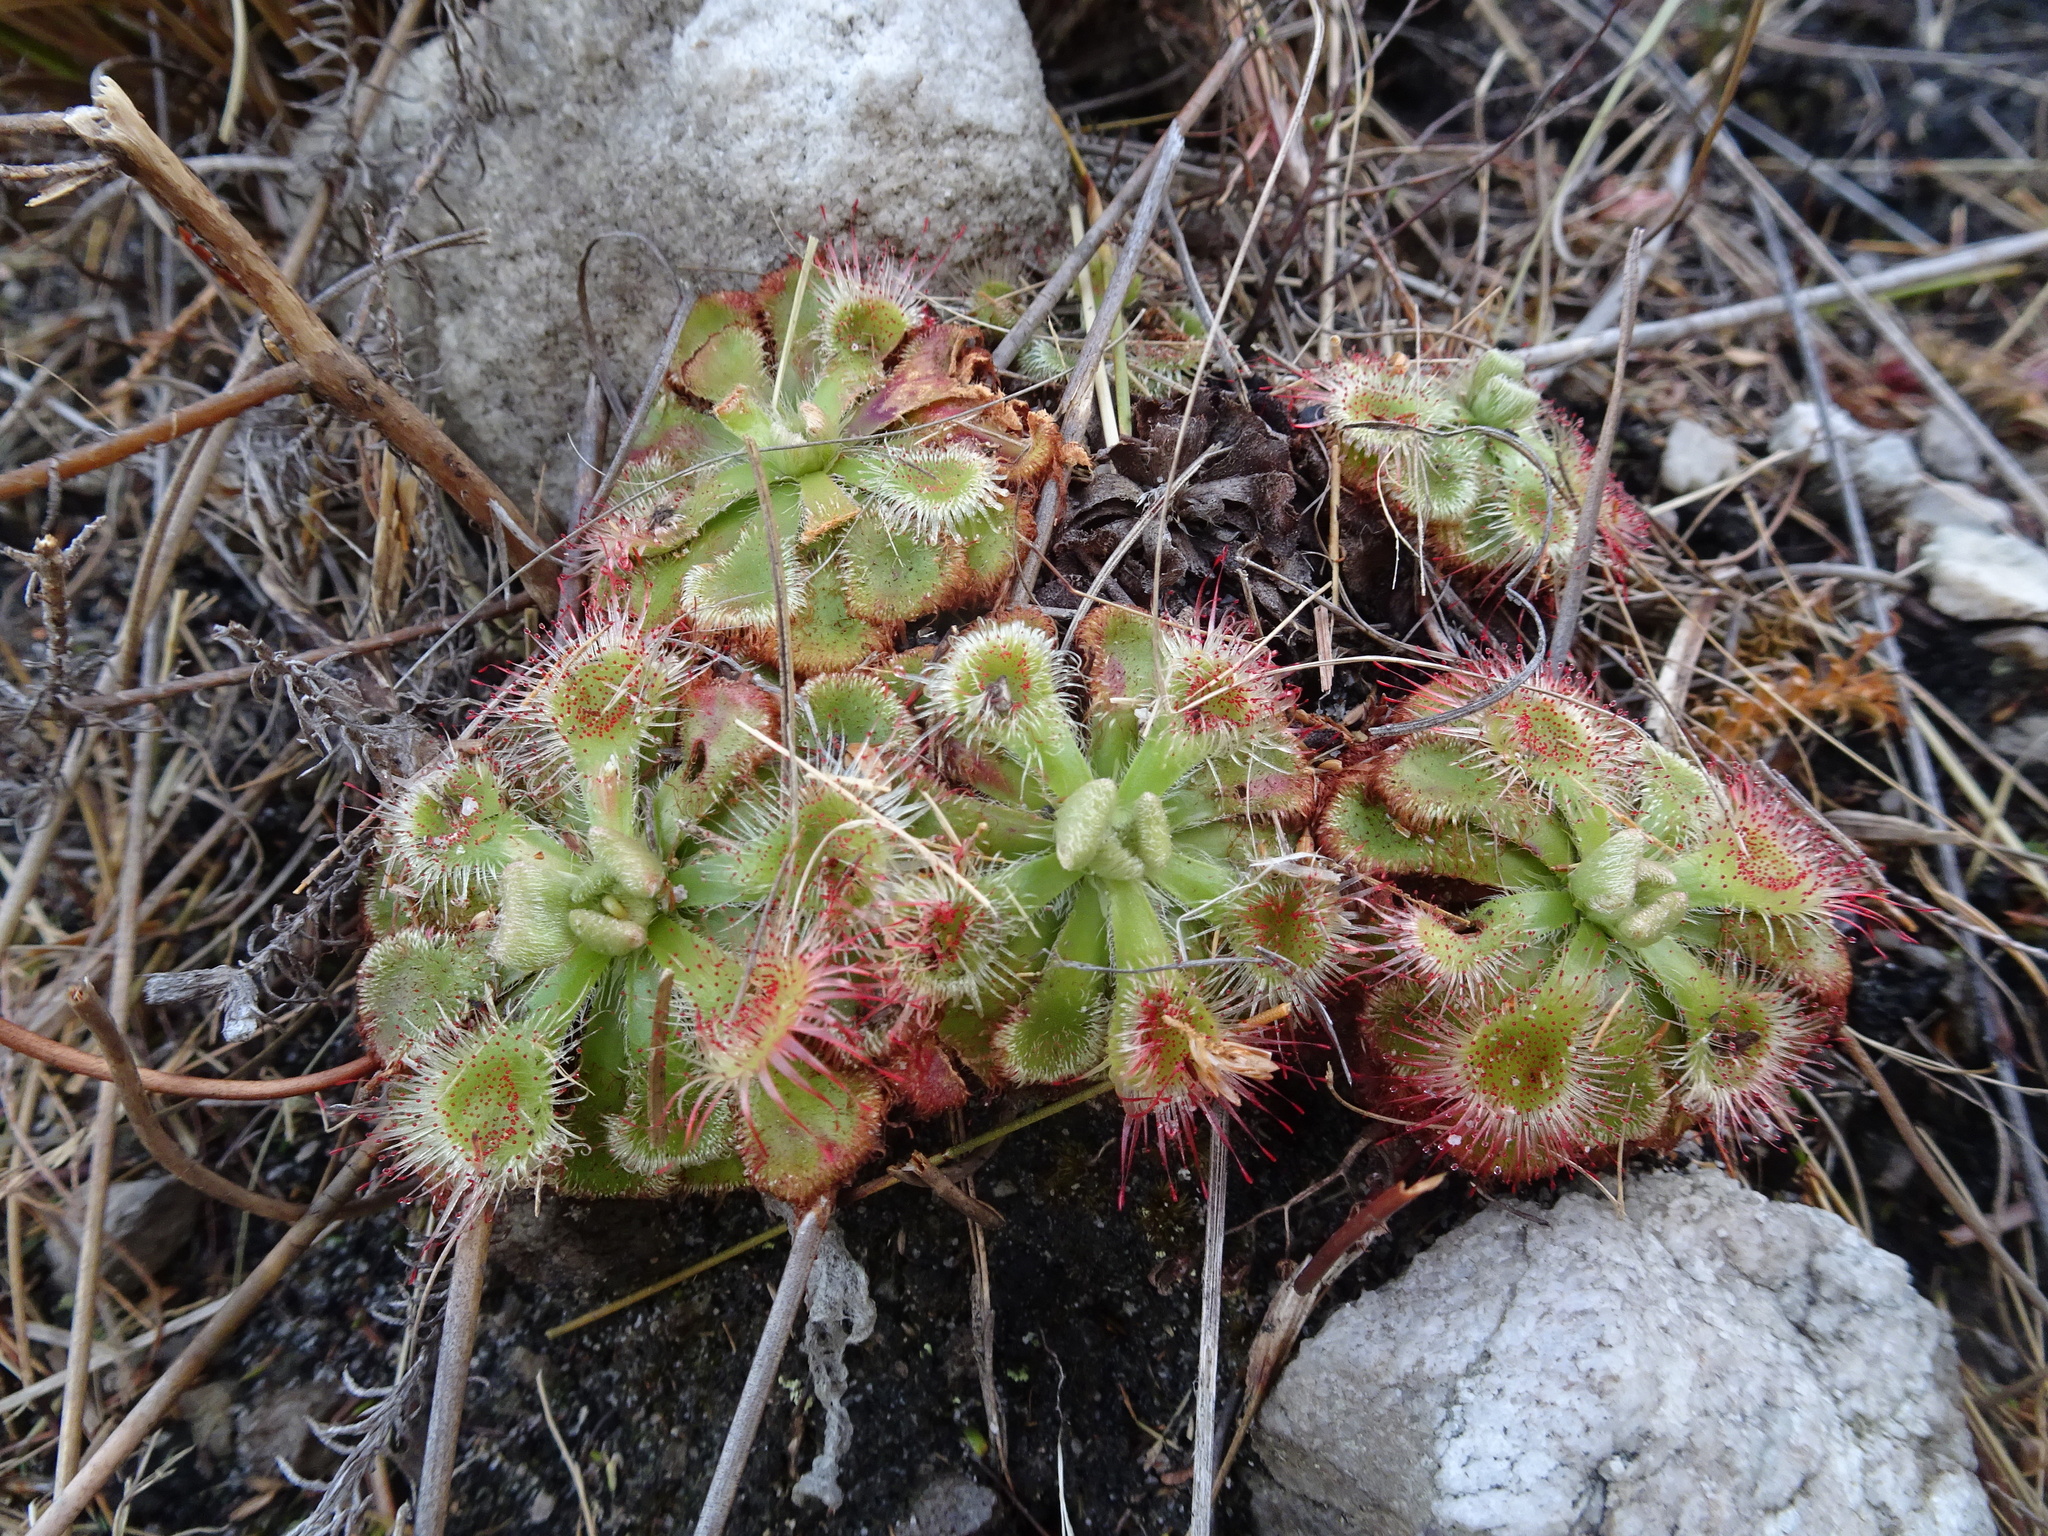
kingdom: Plantae
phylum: Tracheophyta
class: Magnoliopsida
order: Caryophyllales
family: Droseraceae
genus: Drosera
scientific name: Drosera xerophila
